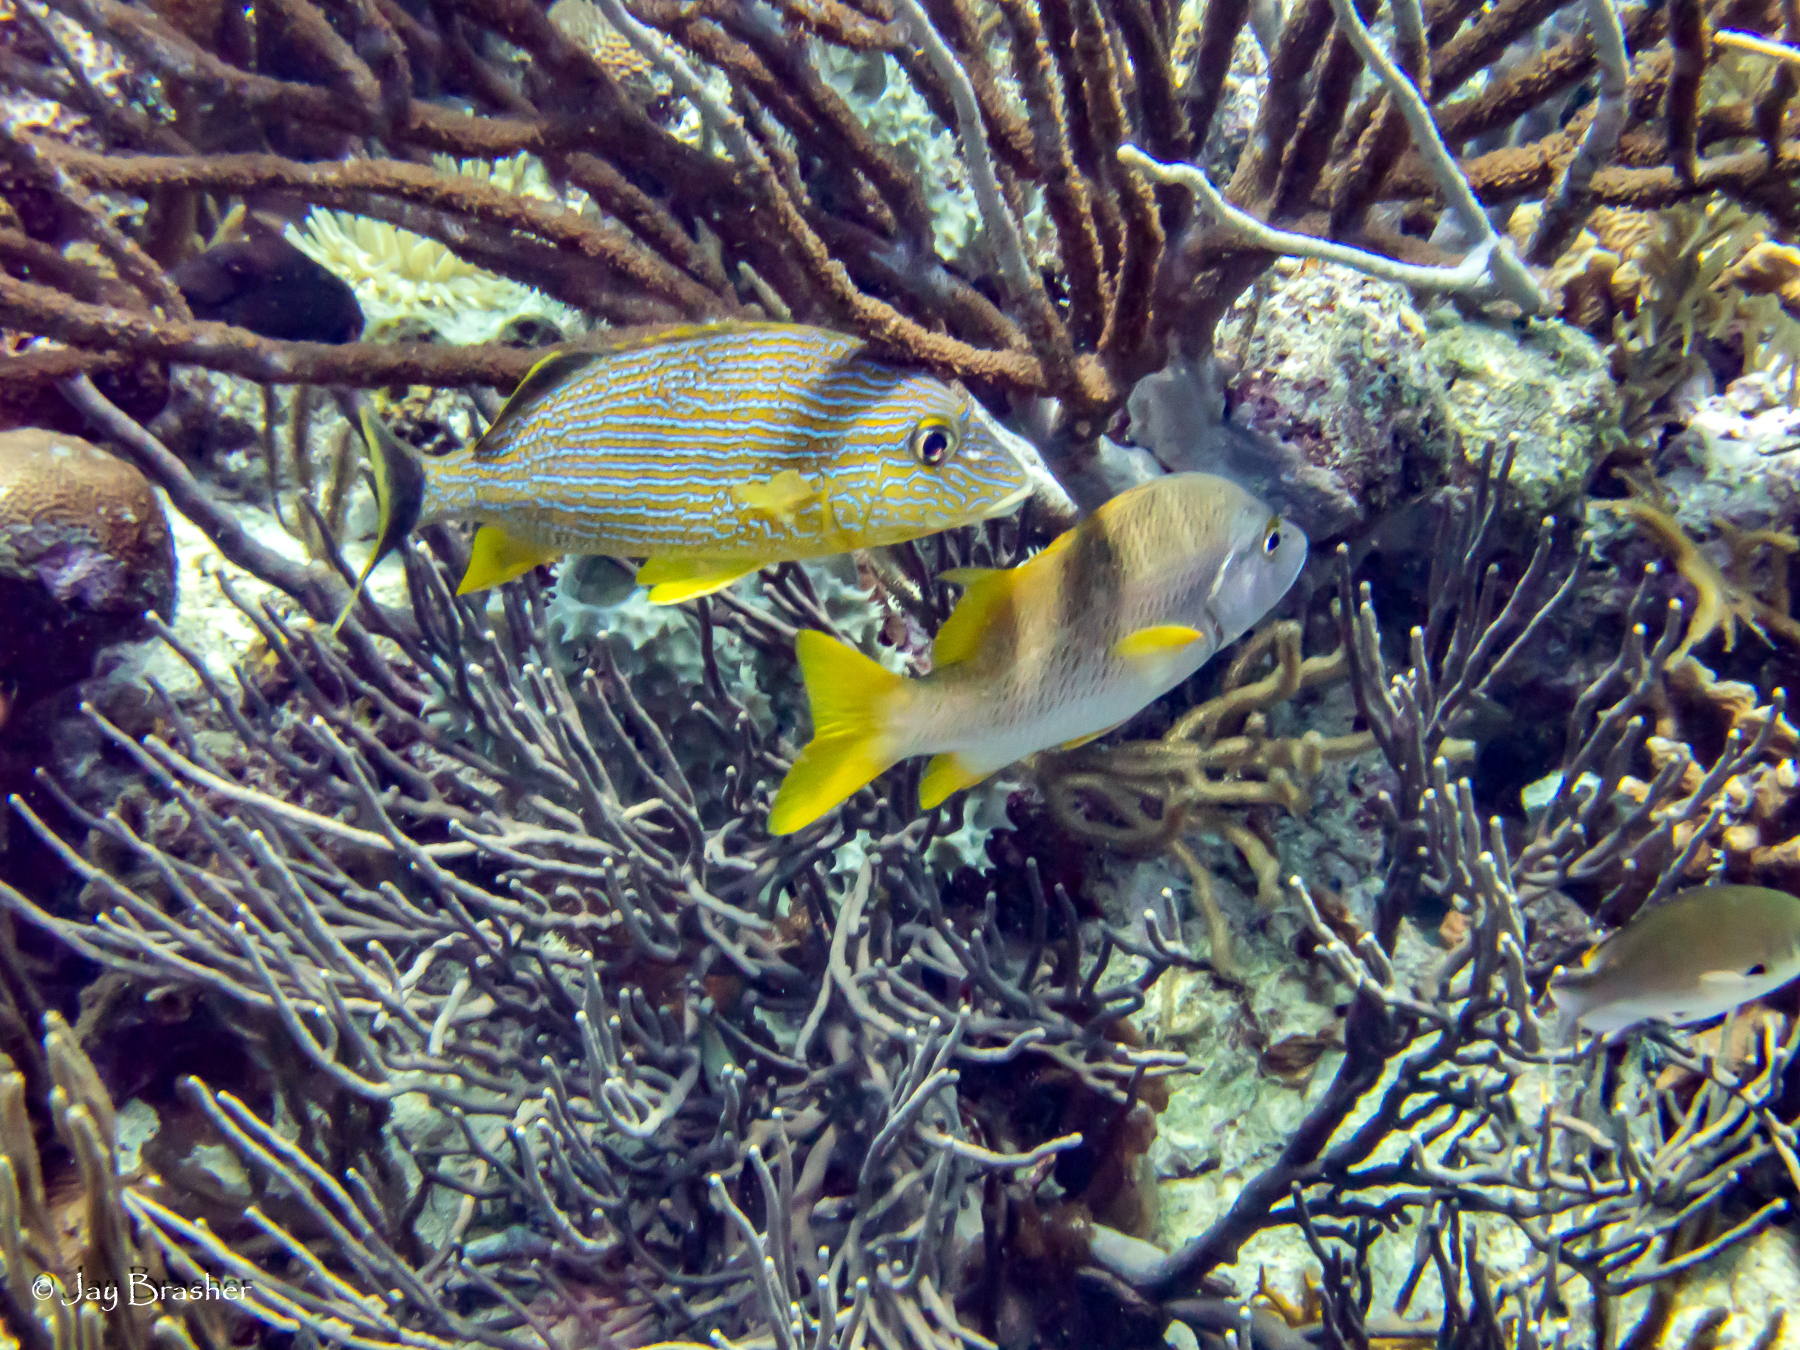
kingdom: Animalia
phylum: Chordata
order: Perciformes
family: Haemulidae
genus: Haemulon
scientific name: Haemulon sciurus
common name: Bluestriped grunt
